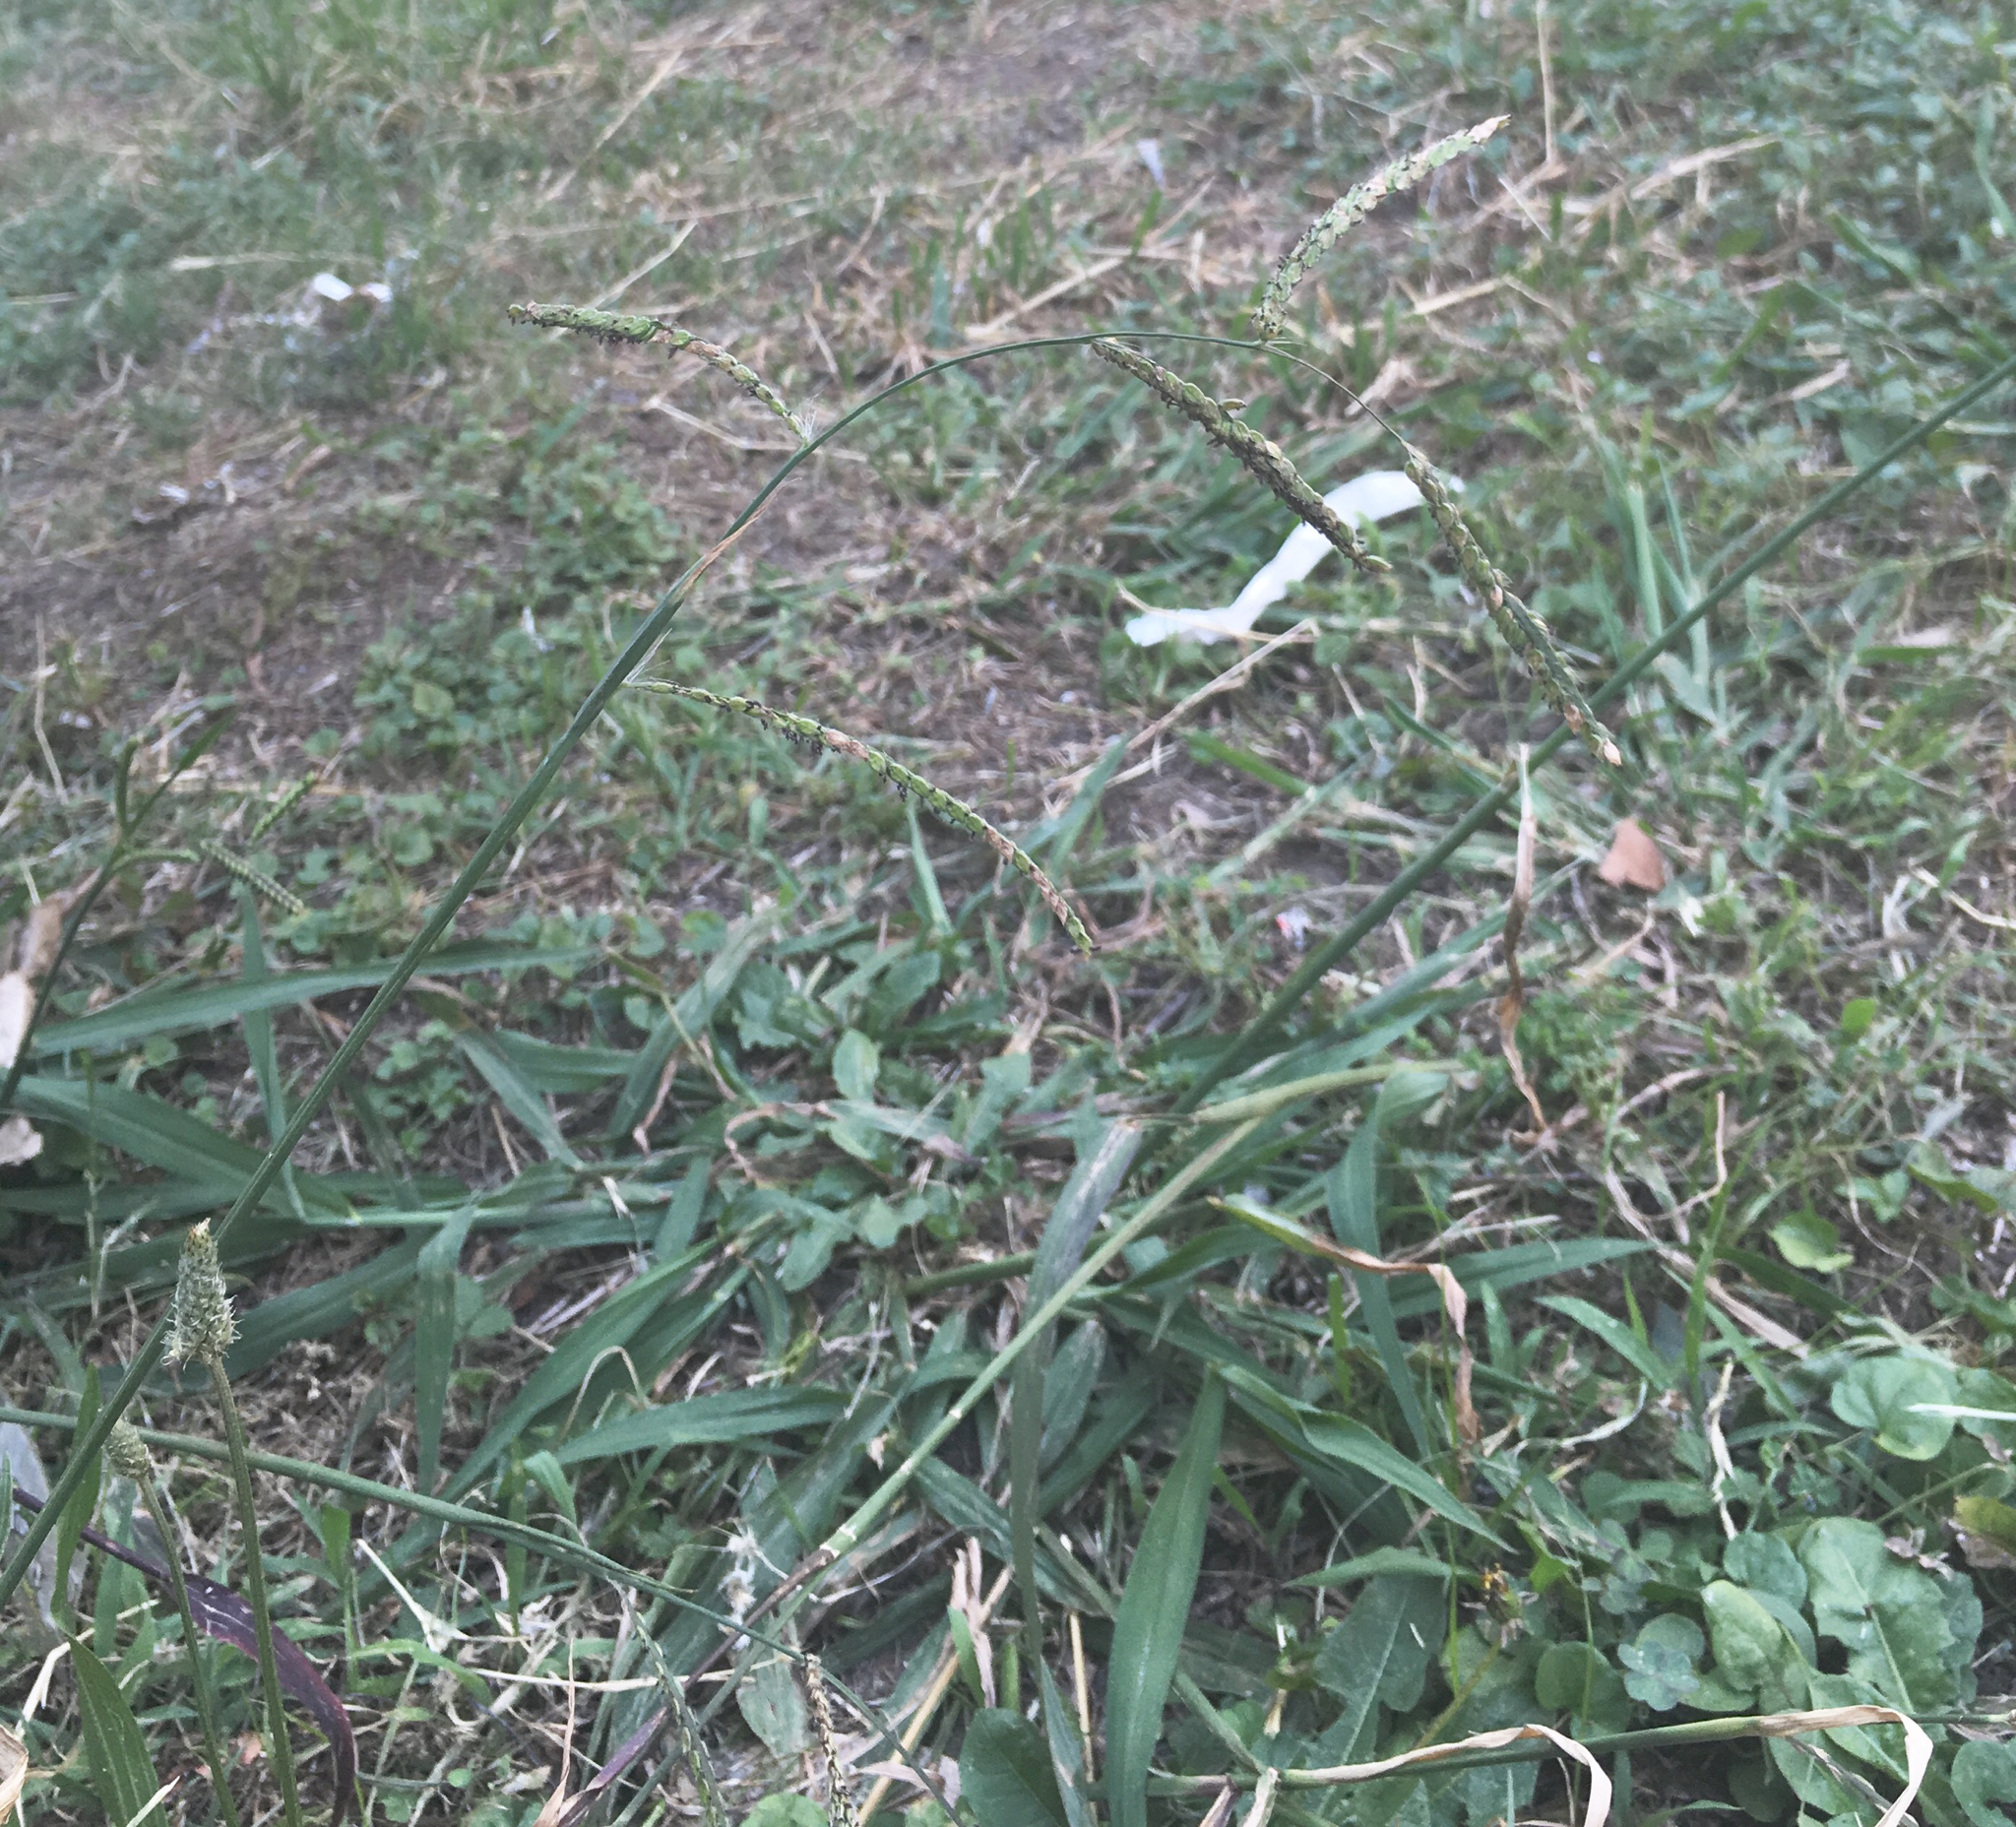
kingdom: Plantae
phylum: Tracheophyta
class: Liliopsida
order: Poales
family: Poaceae
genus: Paspalum
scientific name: Paspalum dilatatum
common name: Dallisgrass
